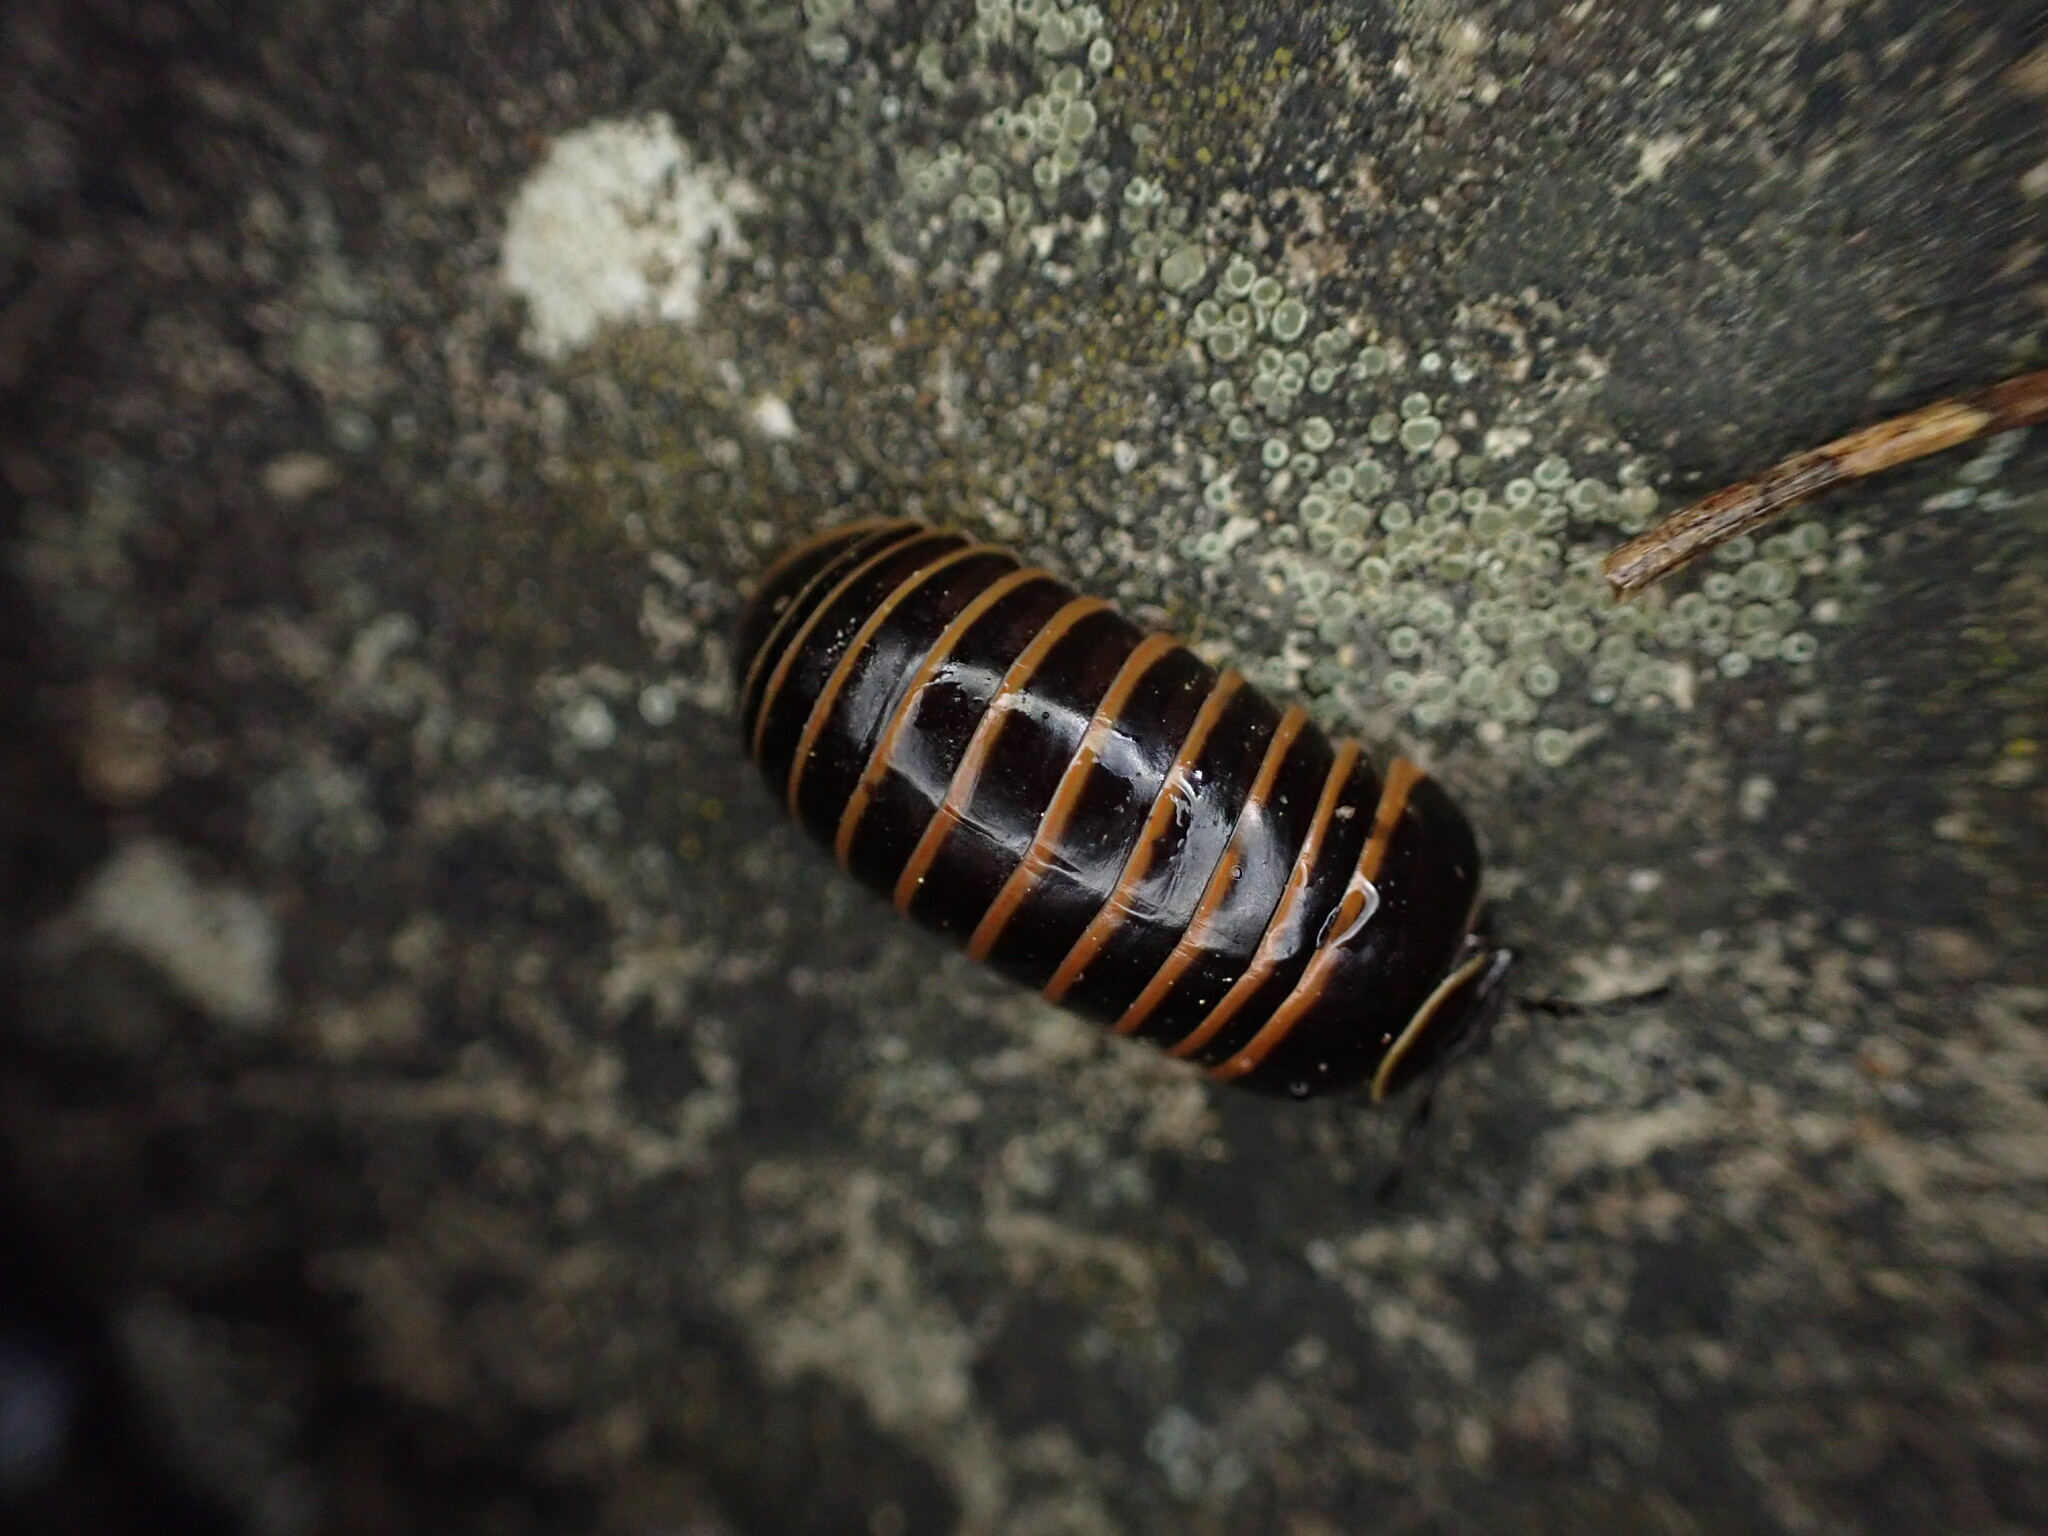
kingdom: Animalia
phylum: Arthropoda
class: Diplopoda
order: Glomerida
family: Glomeridae
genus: Glomeris
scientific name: Glomeris marginata
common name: Bordered pill millipede
